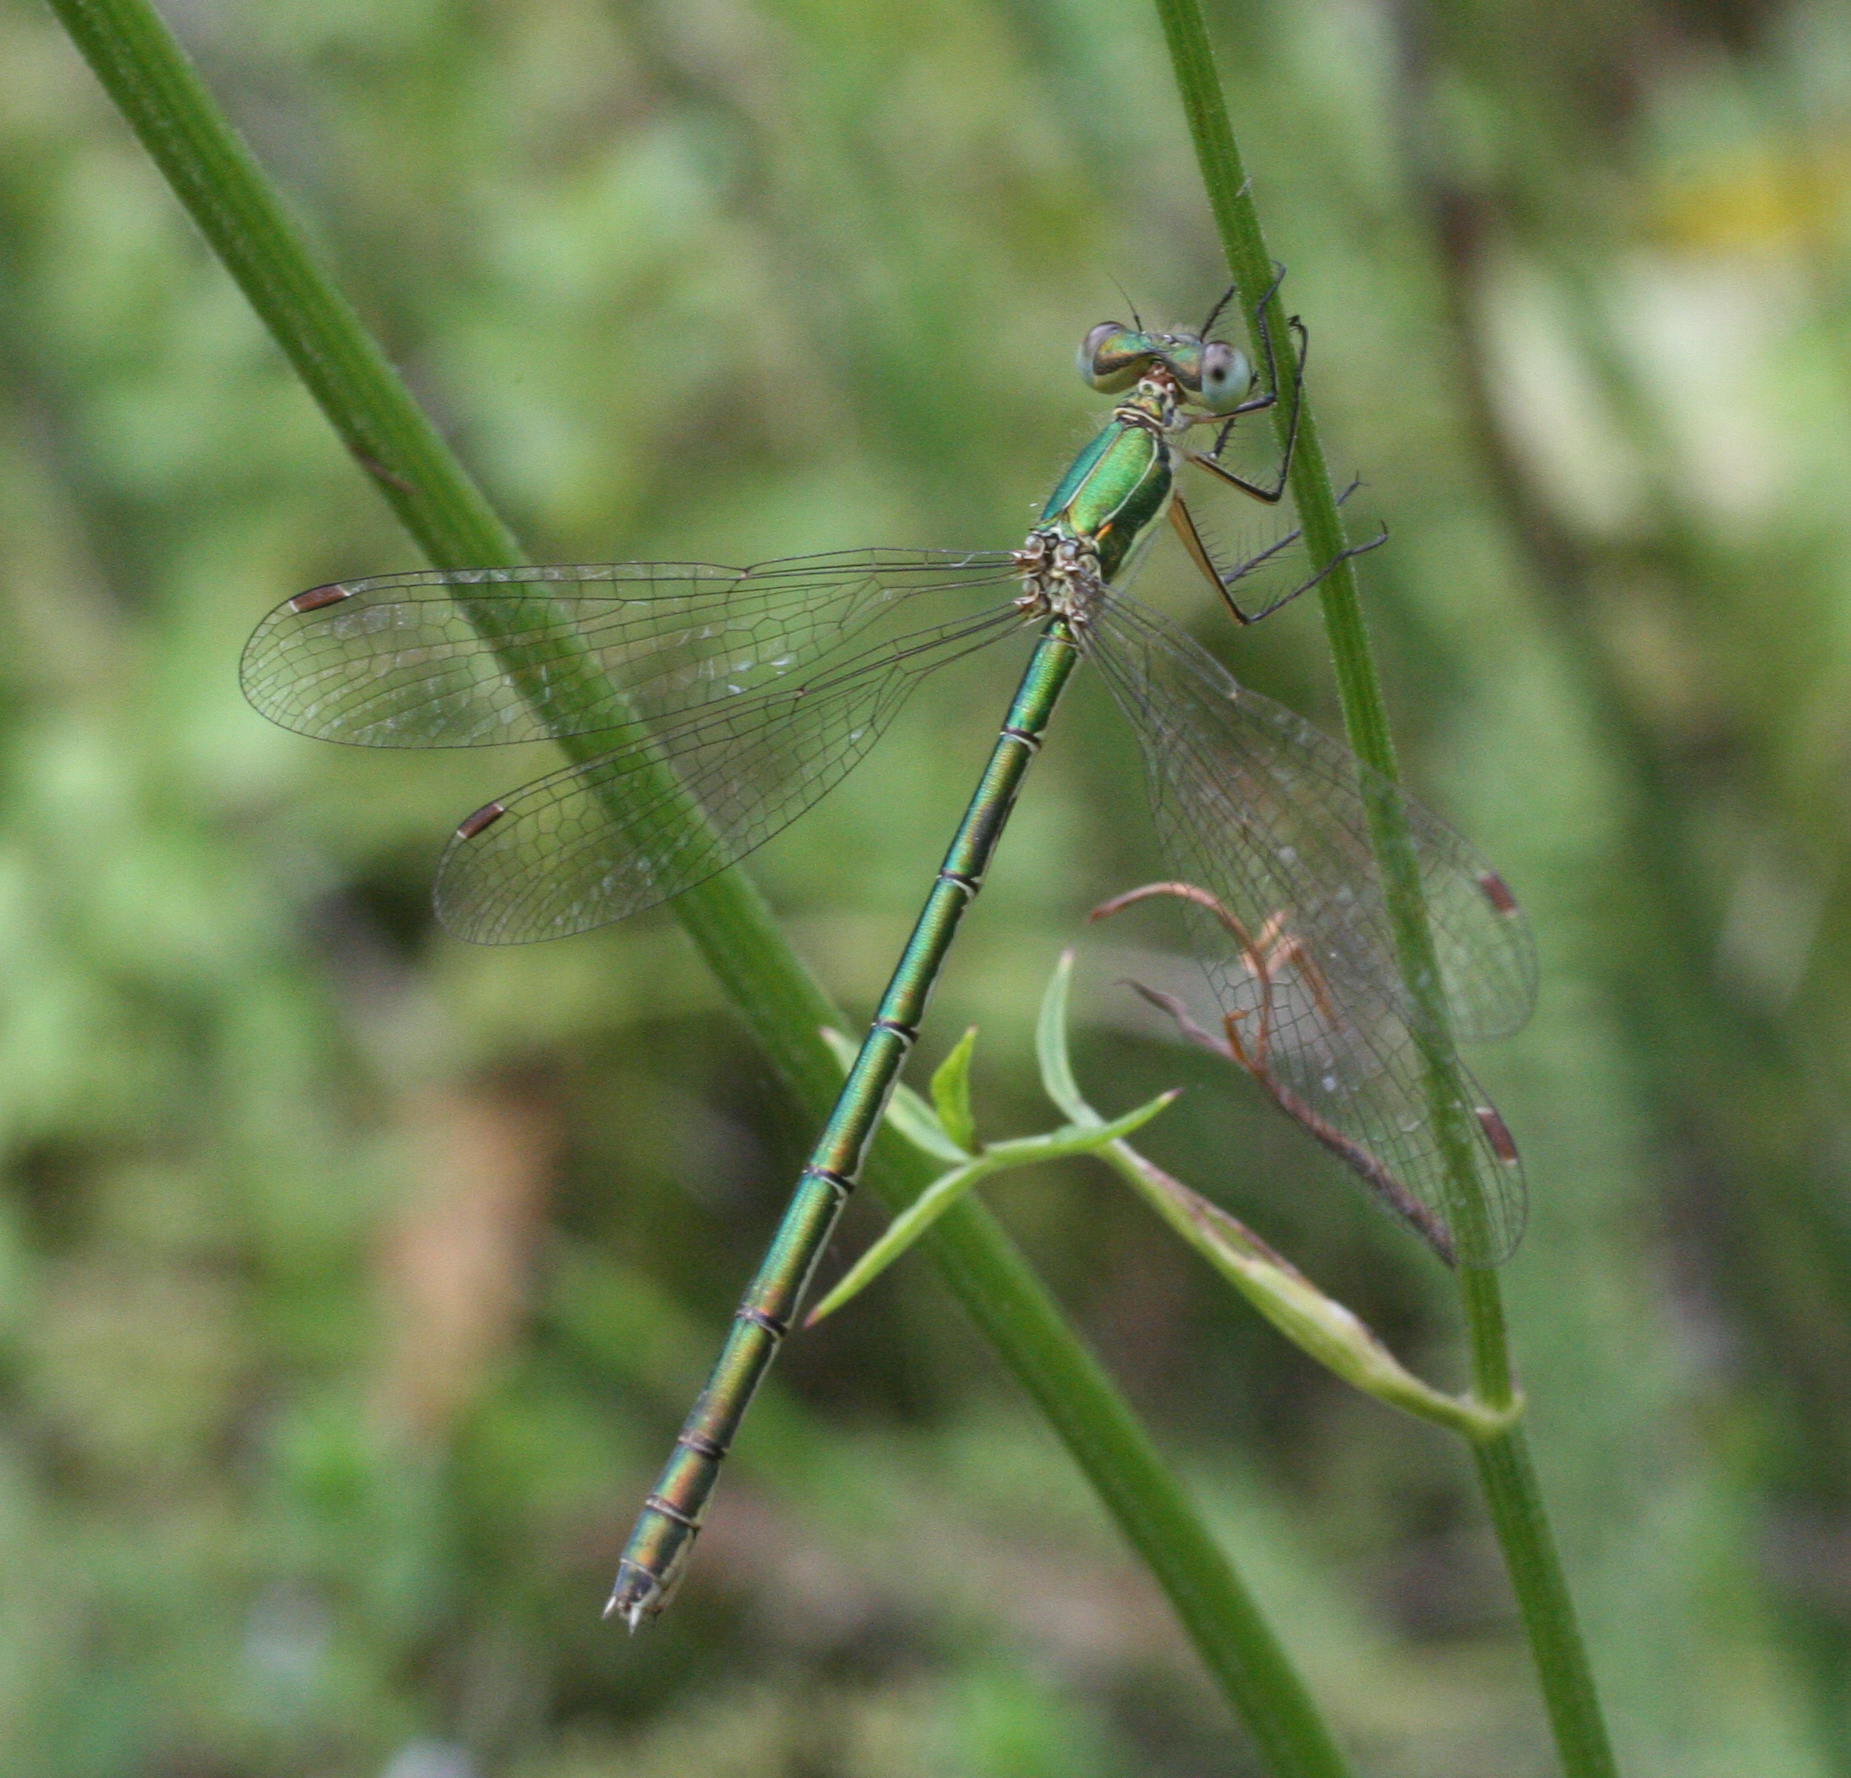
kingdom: Animalia
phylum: Arthropoda
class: Insecta
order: Odonata
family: Lestidae
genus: Lestes
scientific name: Lestes virens
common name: Small emerald spreadwing
